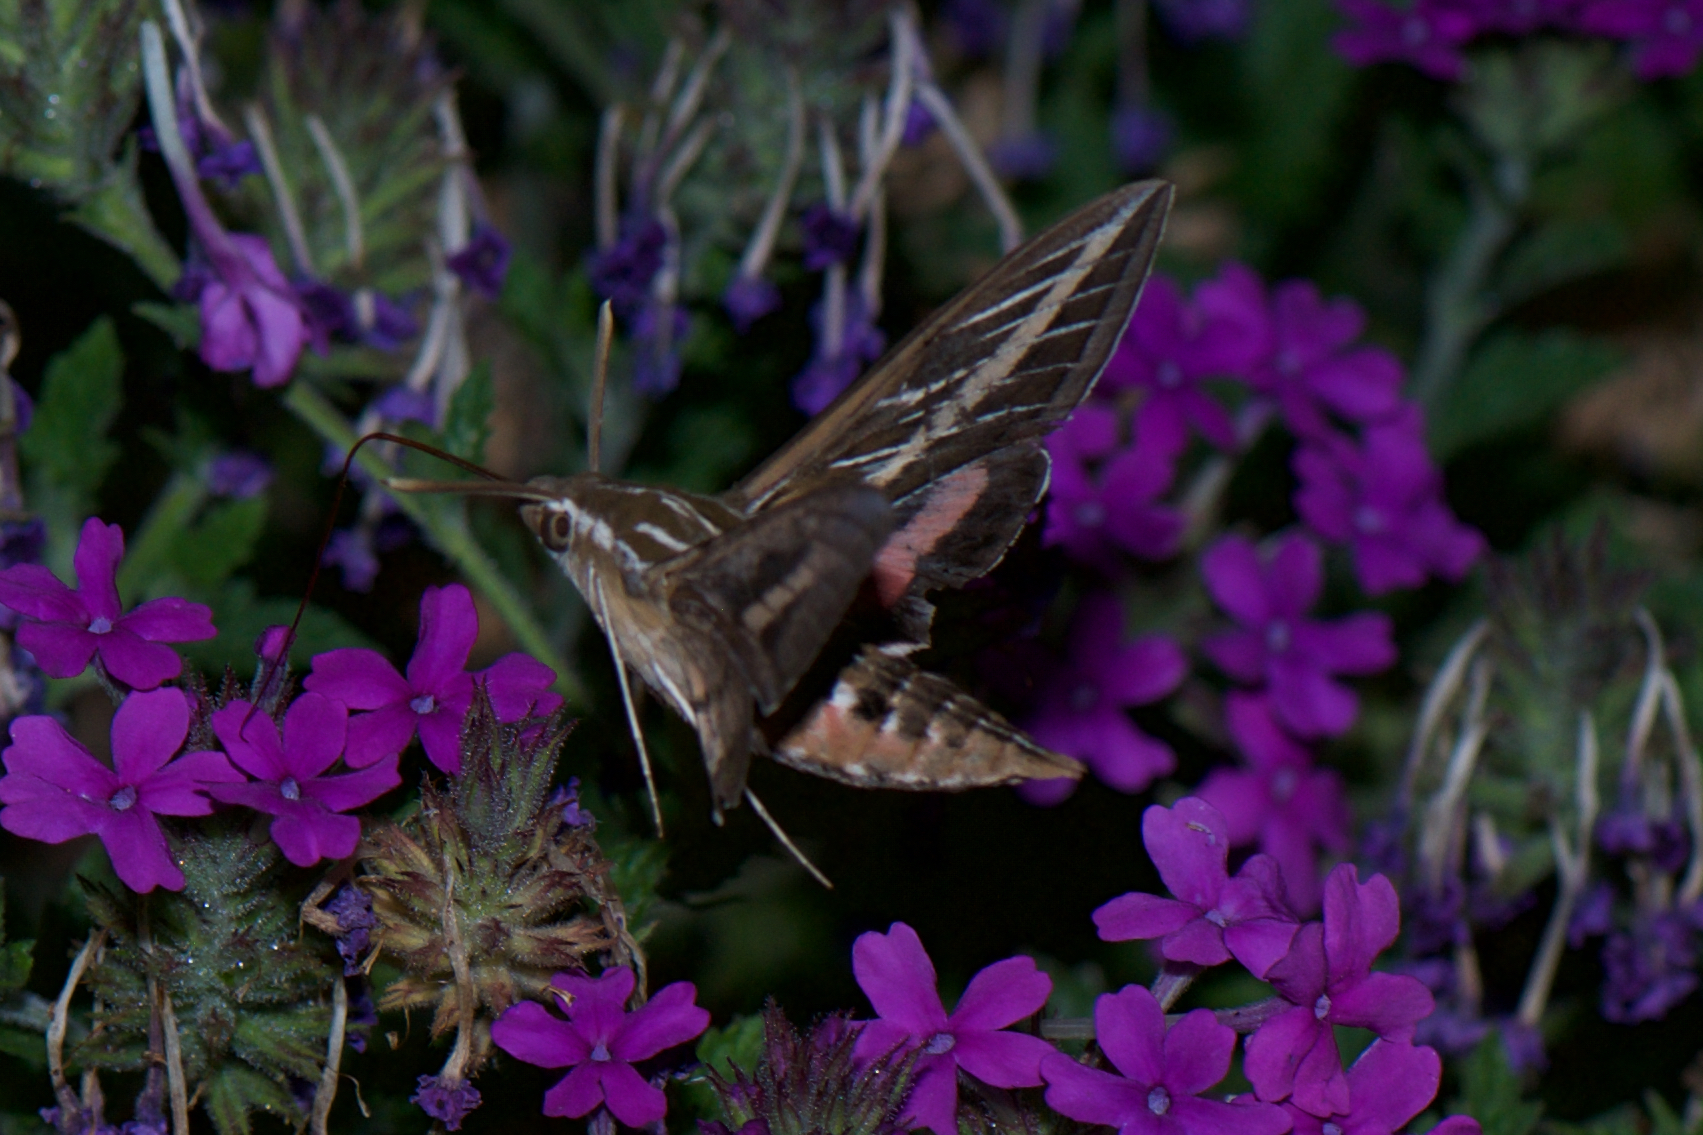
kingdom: Animalia
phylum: Arthropoda
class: Insecta
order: Lepidoptera
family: Sphingidae
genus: Hyles
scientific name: Hyles lineata
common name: White-lined sphinx
